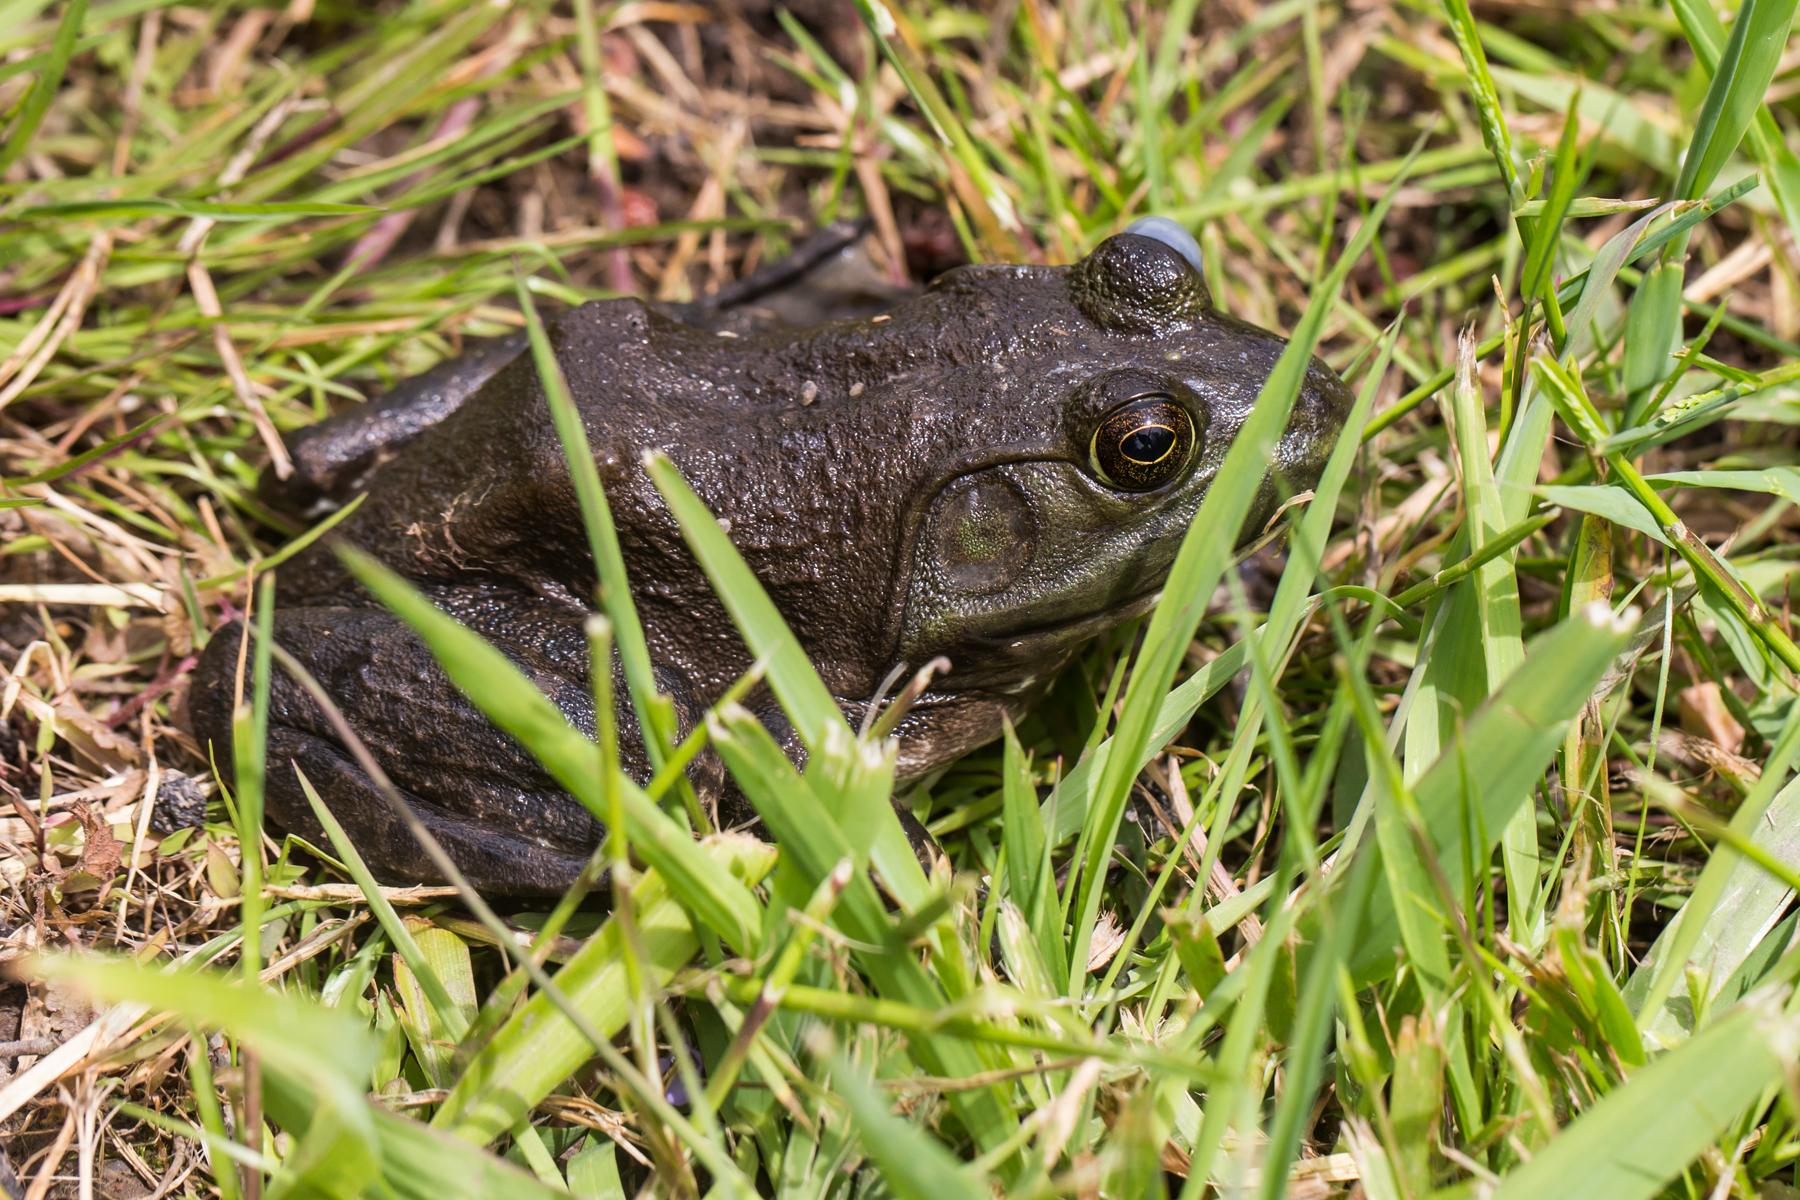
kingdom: Animalia
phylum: Chordata
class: Amphibia
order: Anura
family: Ranidae
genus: Lithobates
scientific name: Lithobates catesbeianus
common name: American bullfrog
